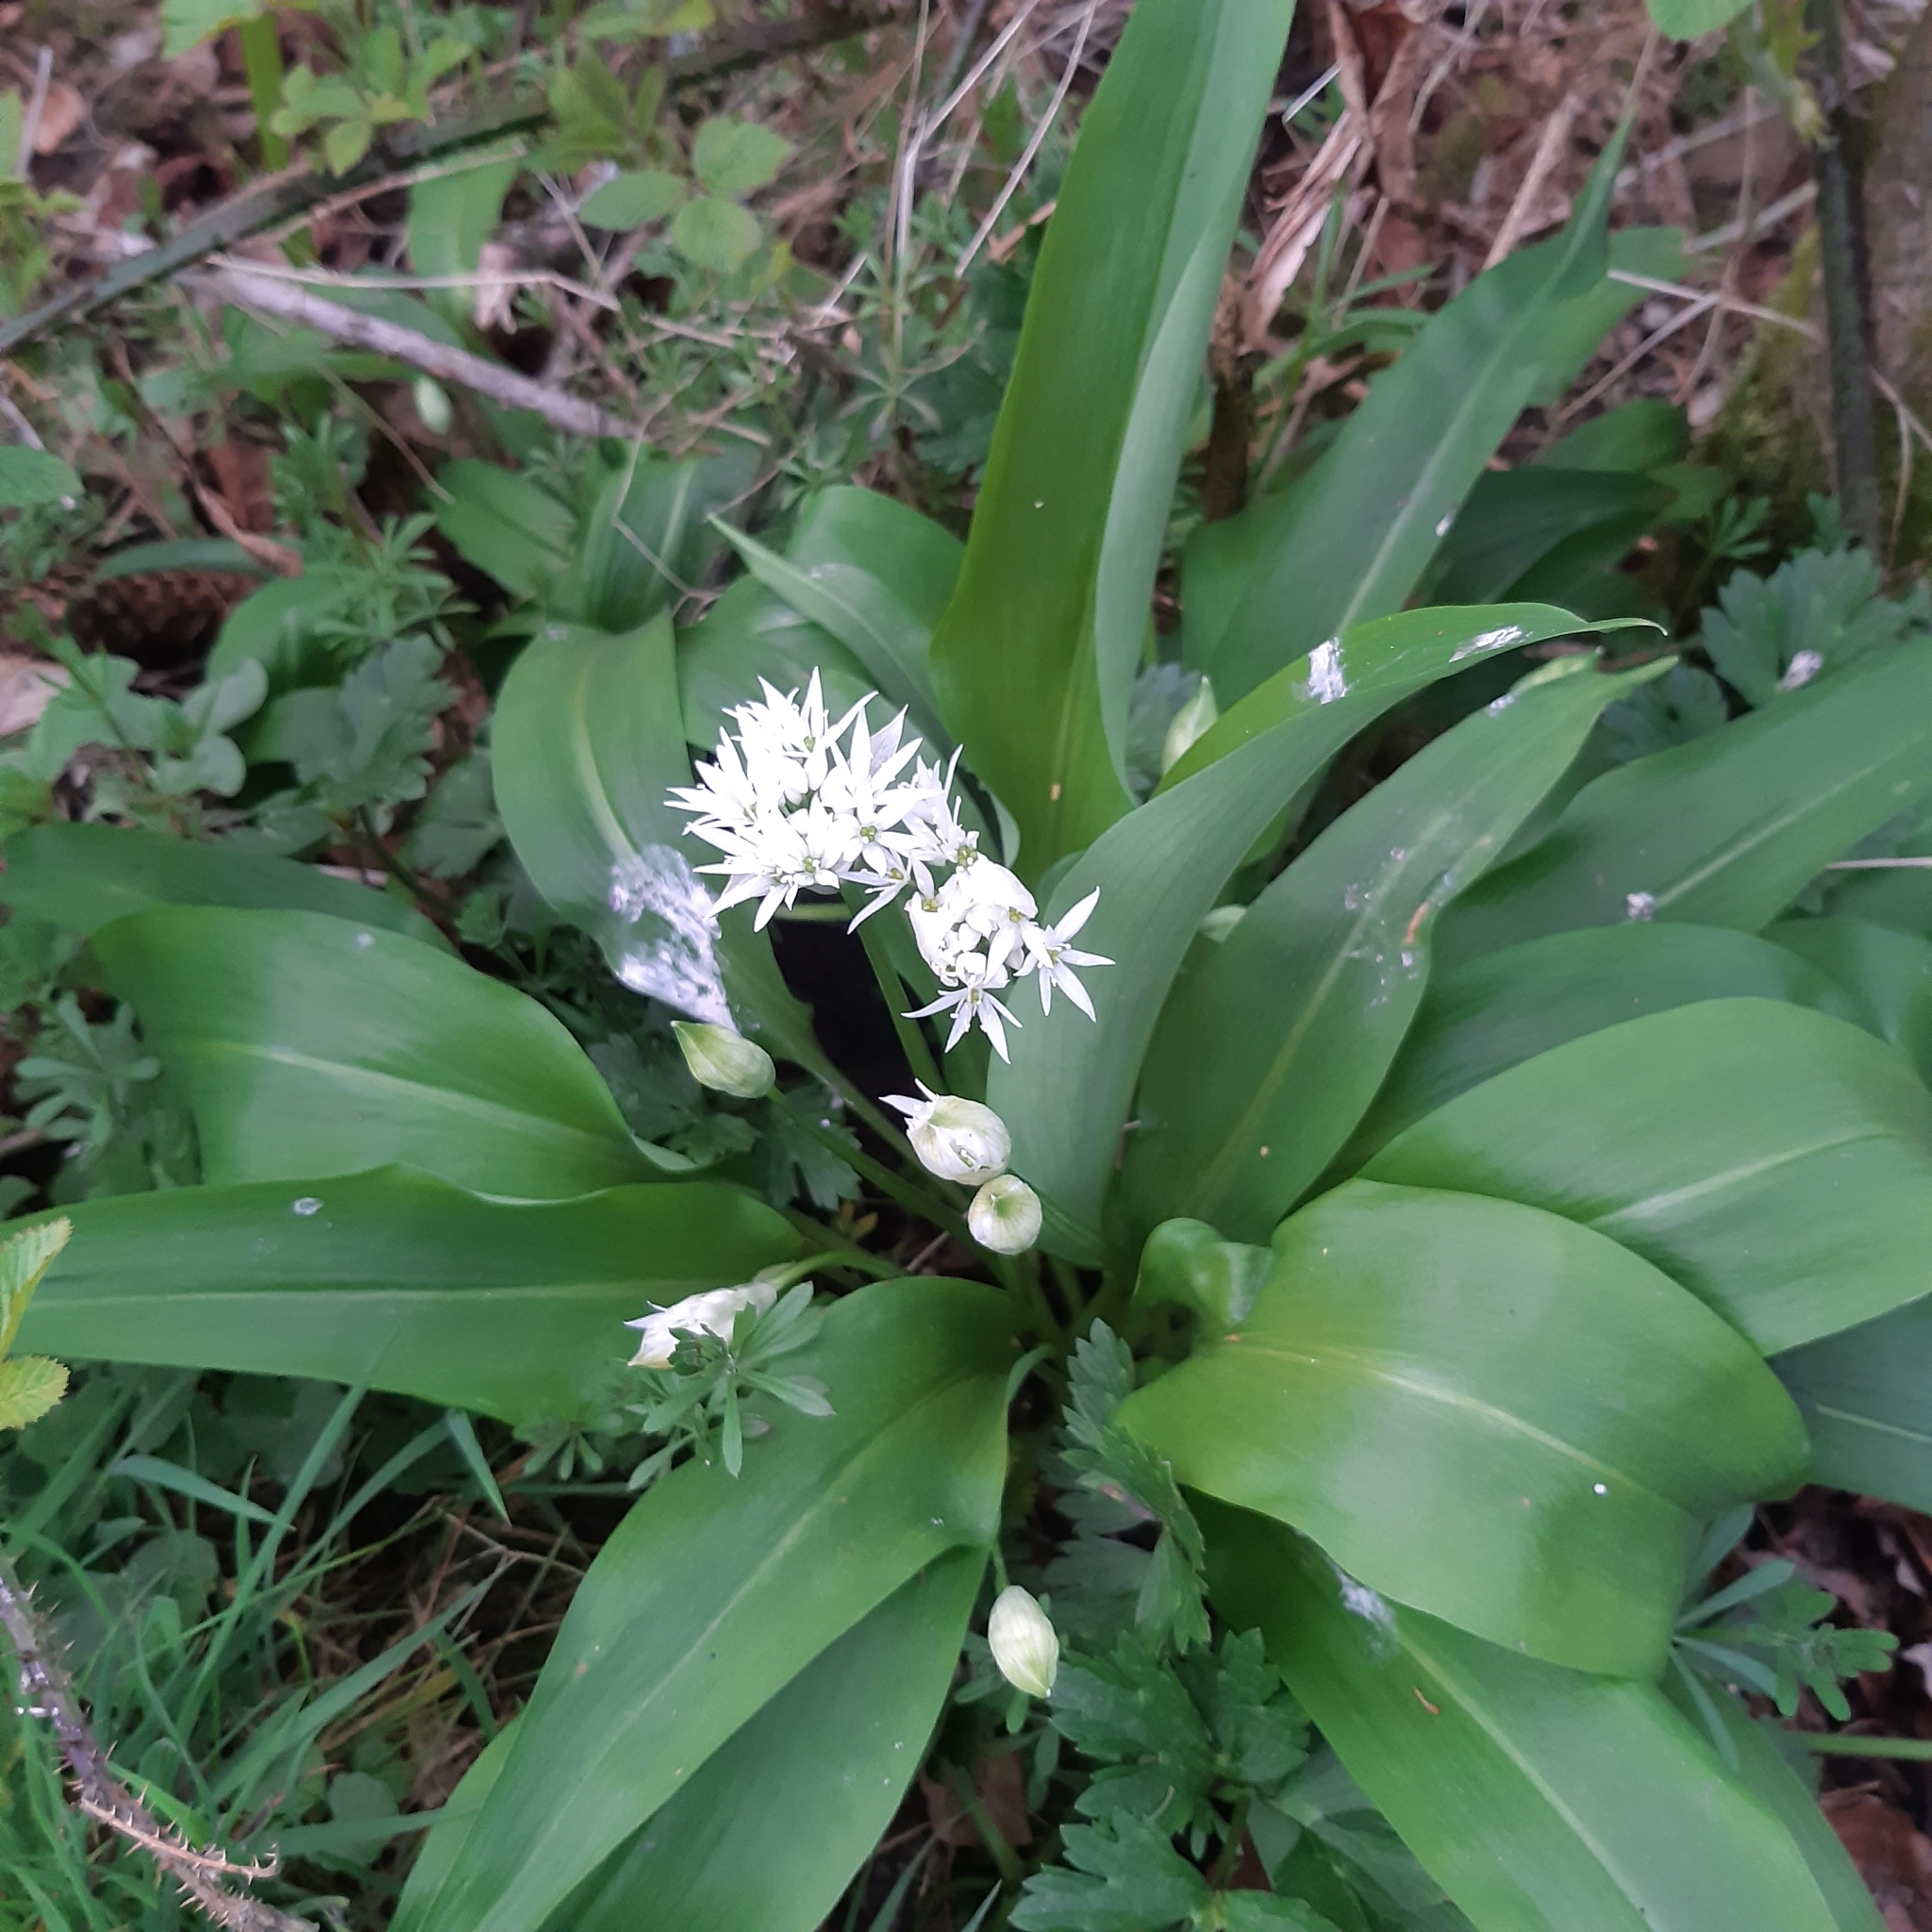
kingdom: Plantae
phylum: Tracheophyta
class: Liliopsida
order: Asparagales
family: Amaryllidaceae
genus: Allium
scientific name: Allium ursinum
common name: Ramsons
